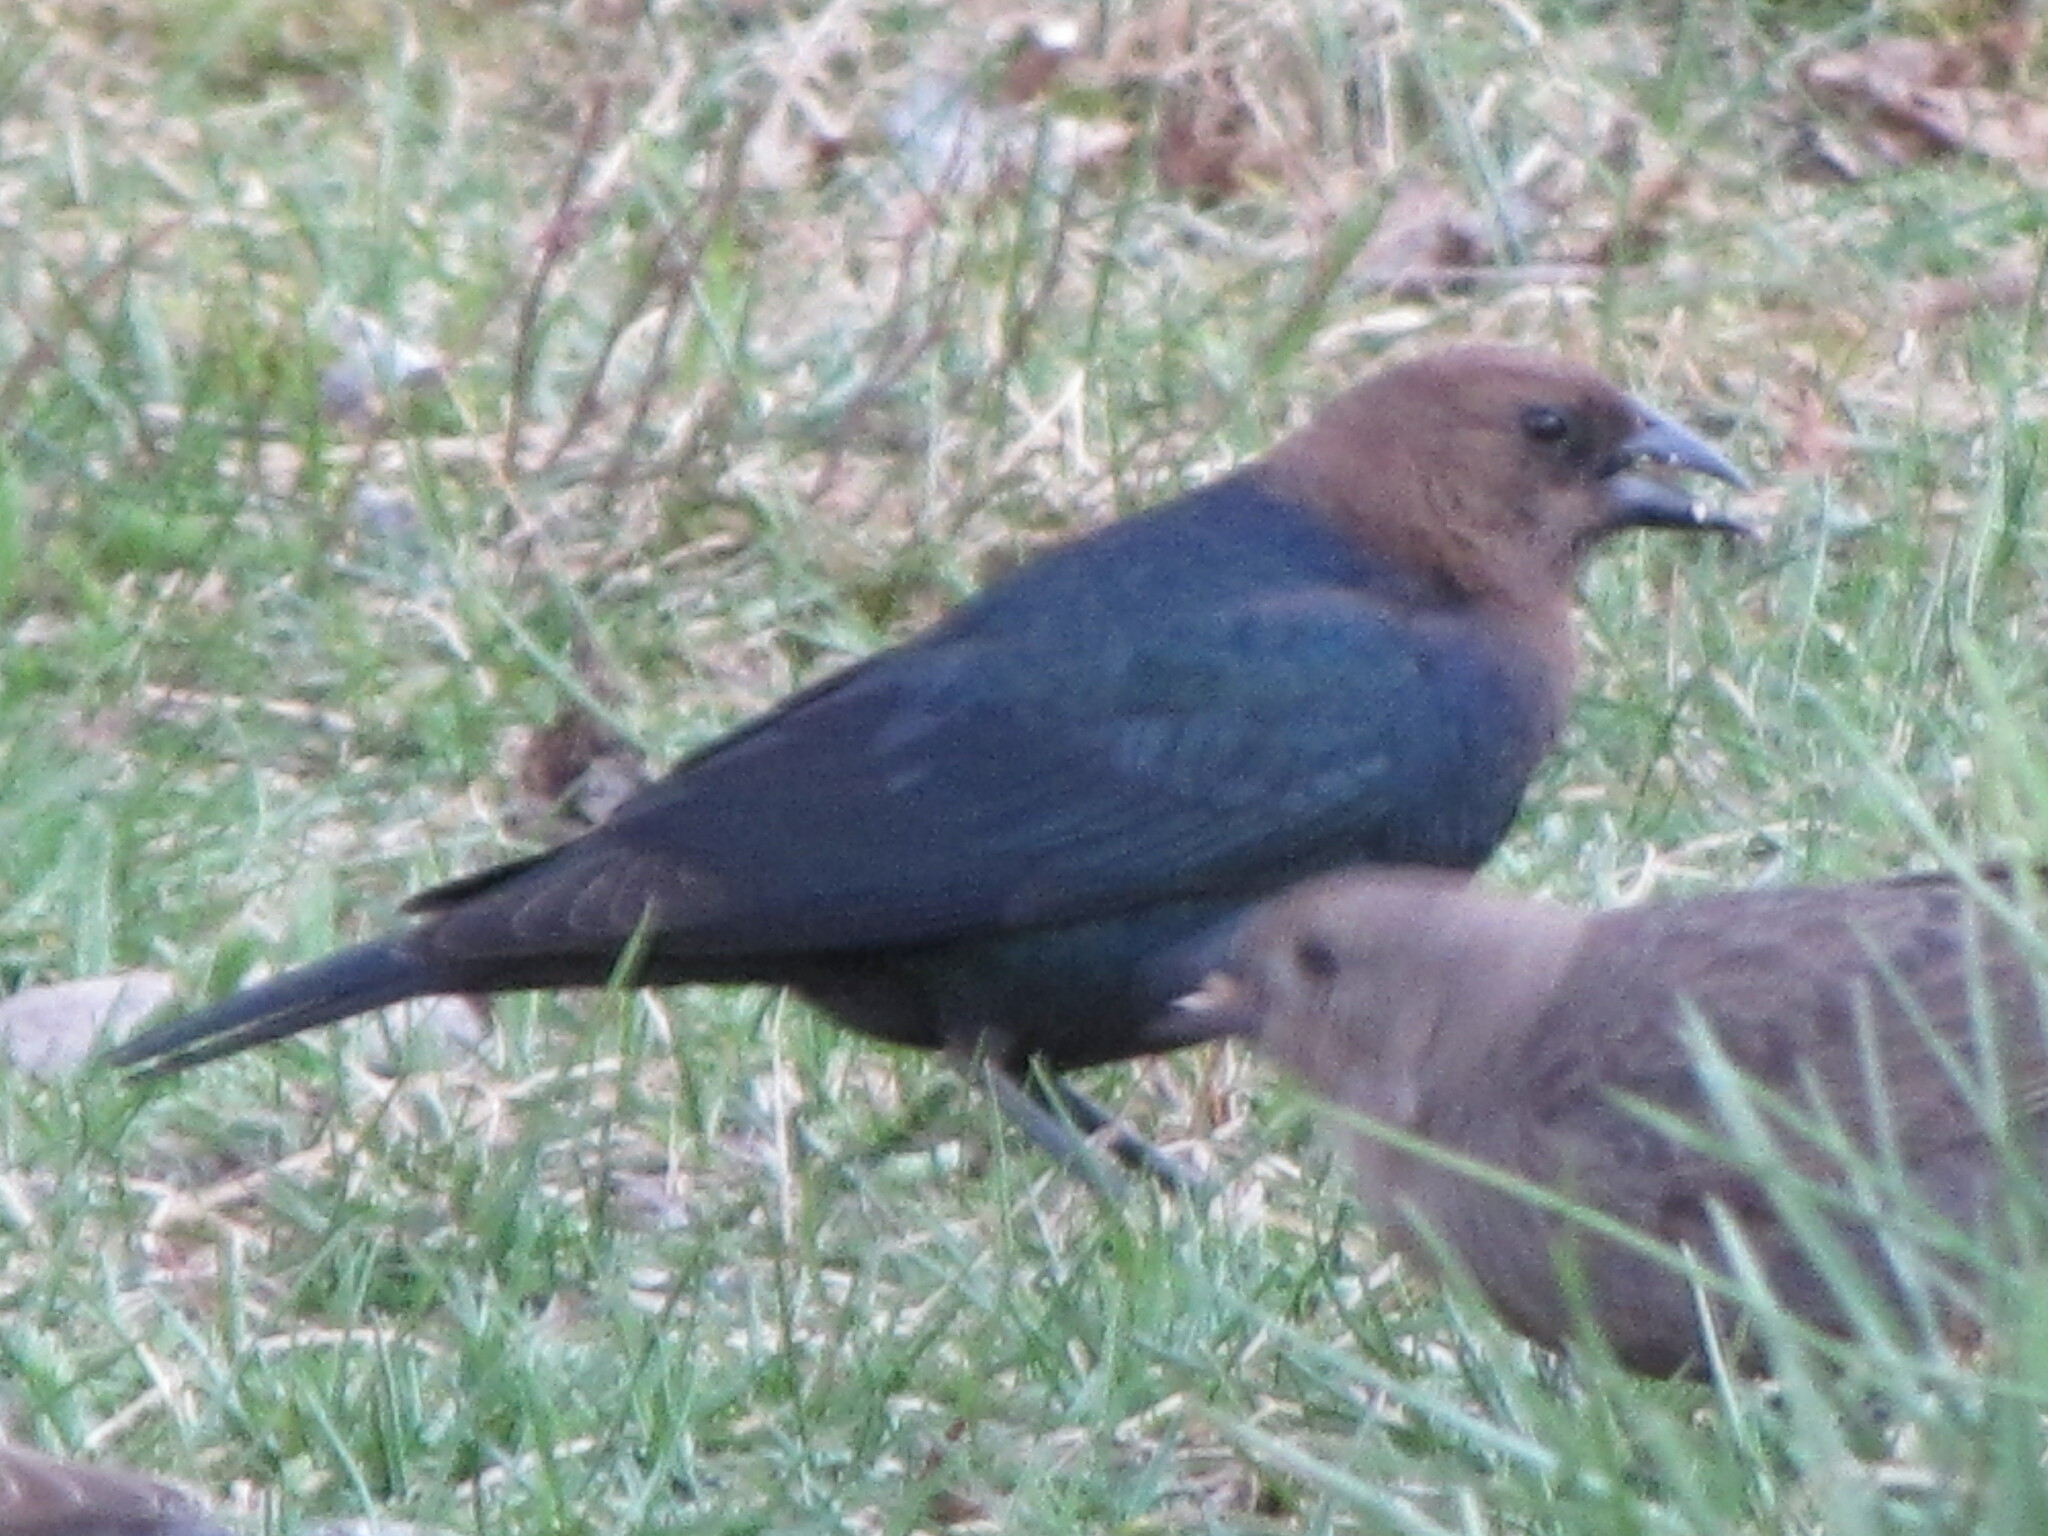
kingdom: Animalia
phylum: Chordata
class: Aves
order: Passeriformes
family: Icteridae
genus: Molothrus
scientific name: Molothrus ater
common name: Brown-headed cowbird
